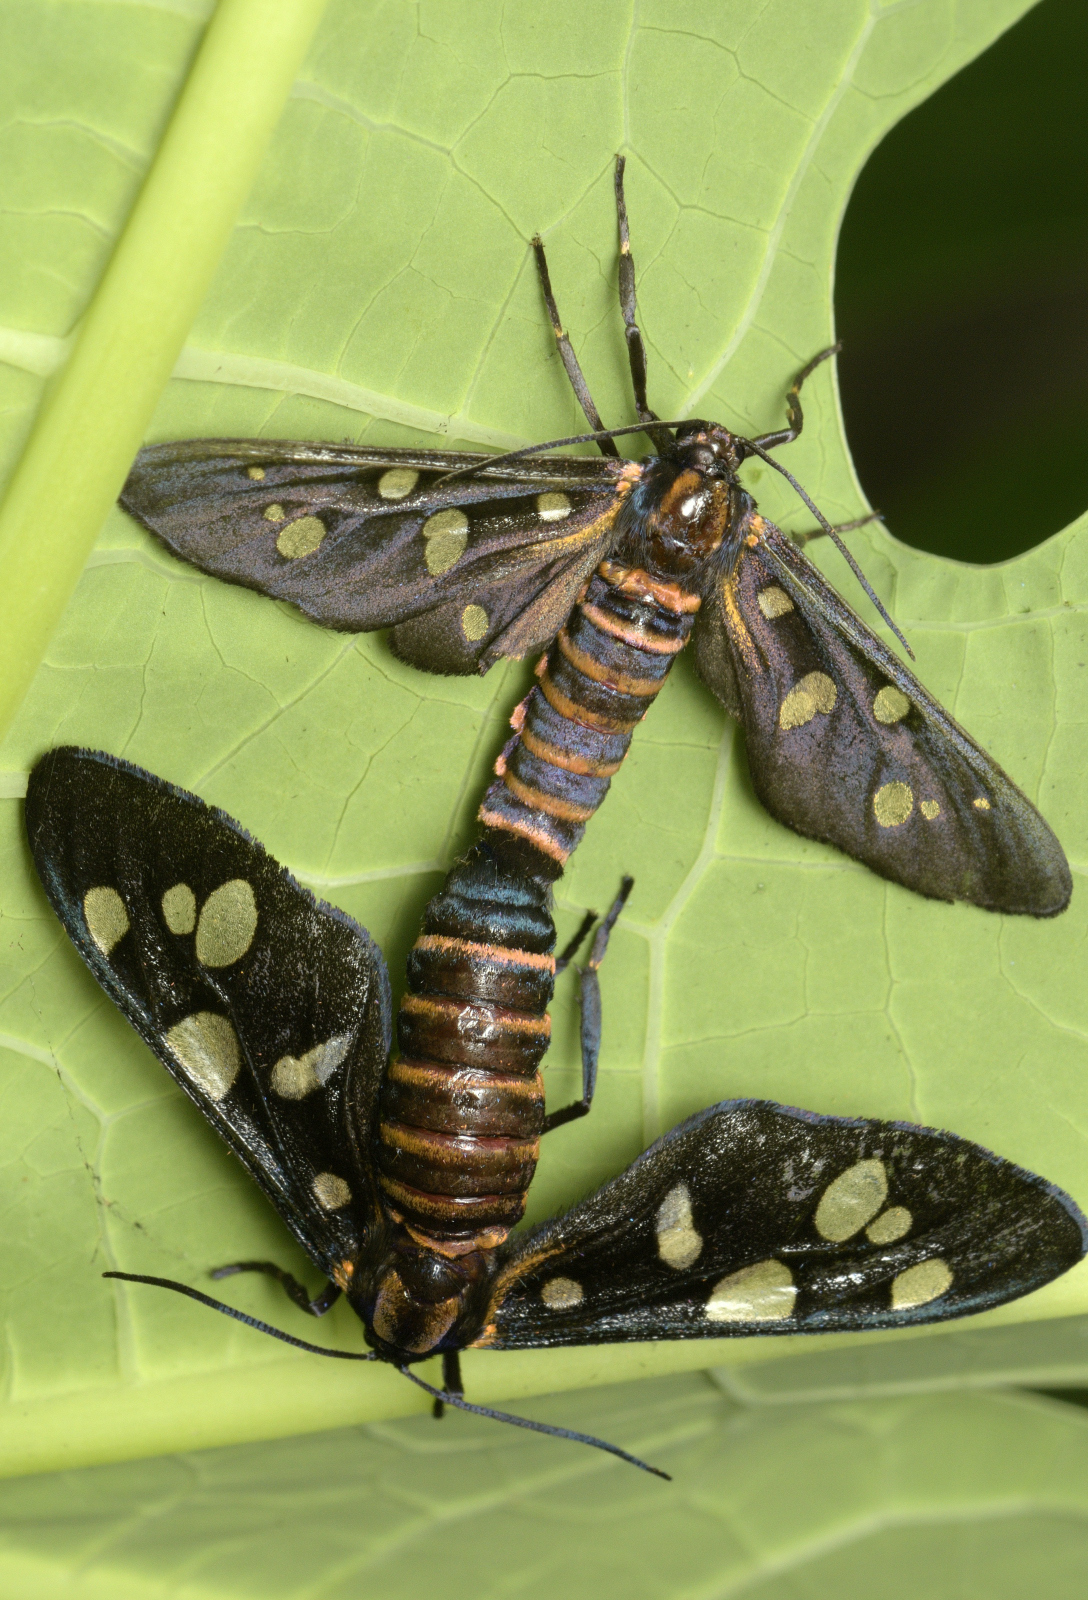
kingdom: Animalia
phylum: Arthropoda
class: Insecta
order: Lepidoptera
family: Erebidae
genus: Amata
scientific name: Amata passalis
